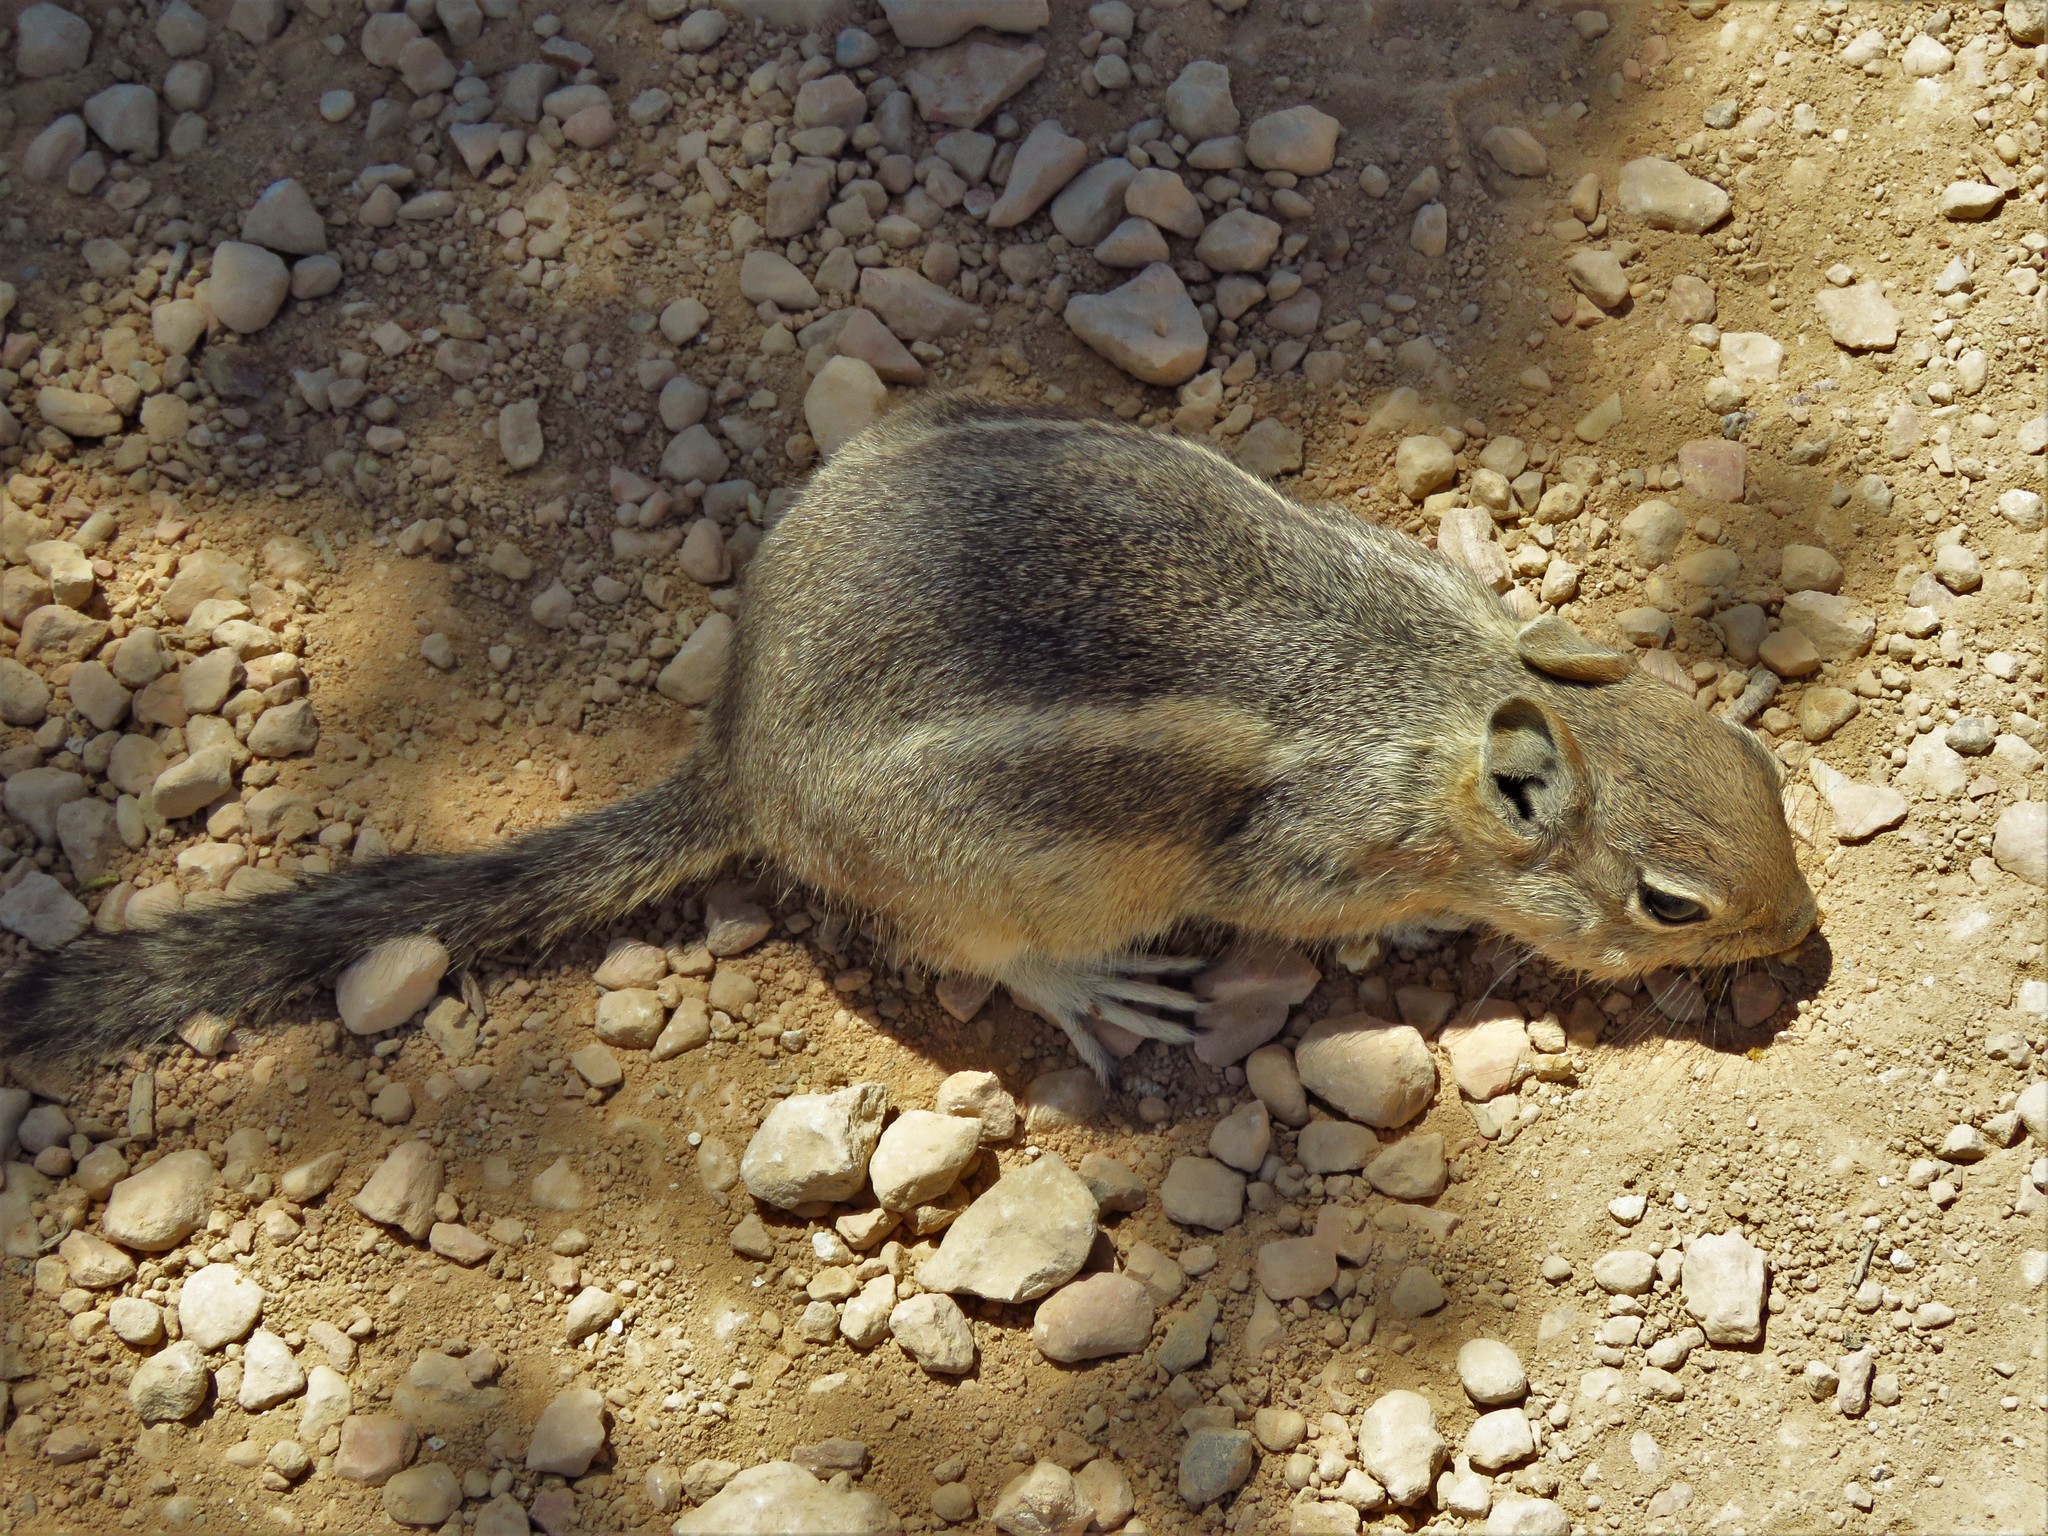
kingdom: Animalia
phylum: Chordata
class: Mammalia
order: Rodentia
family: Sciuridae
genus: Callospermophilus
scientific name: Callospermophilus lateralis
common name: Golden-mantled ground squirrel
